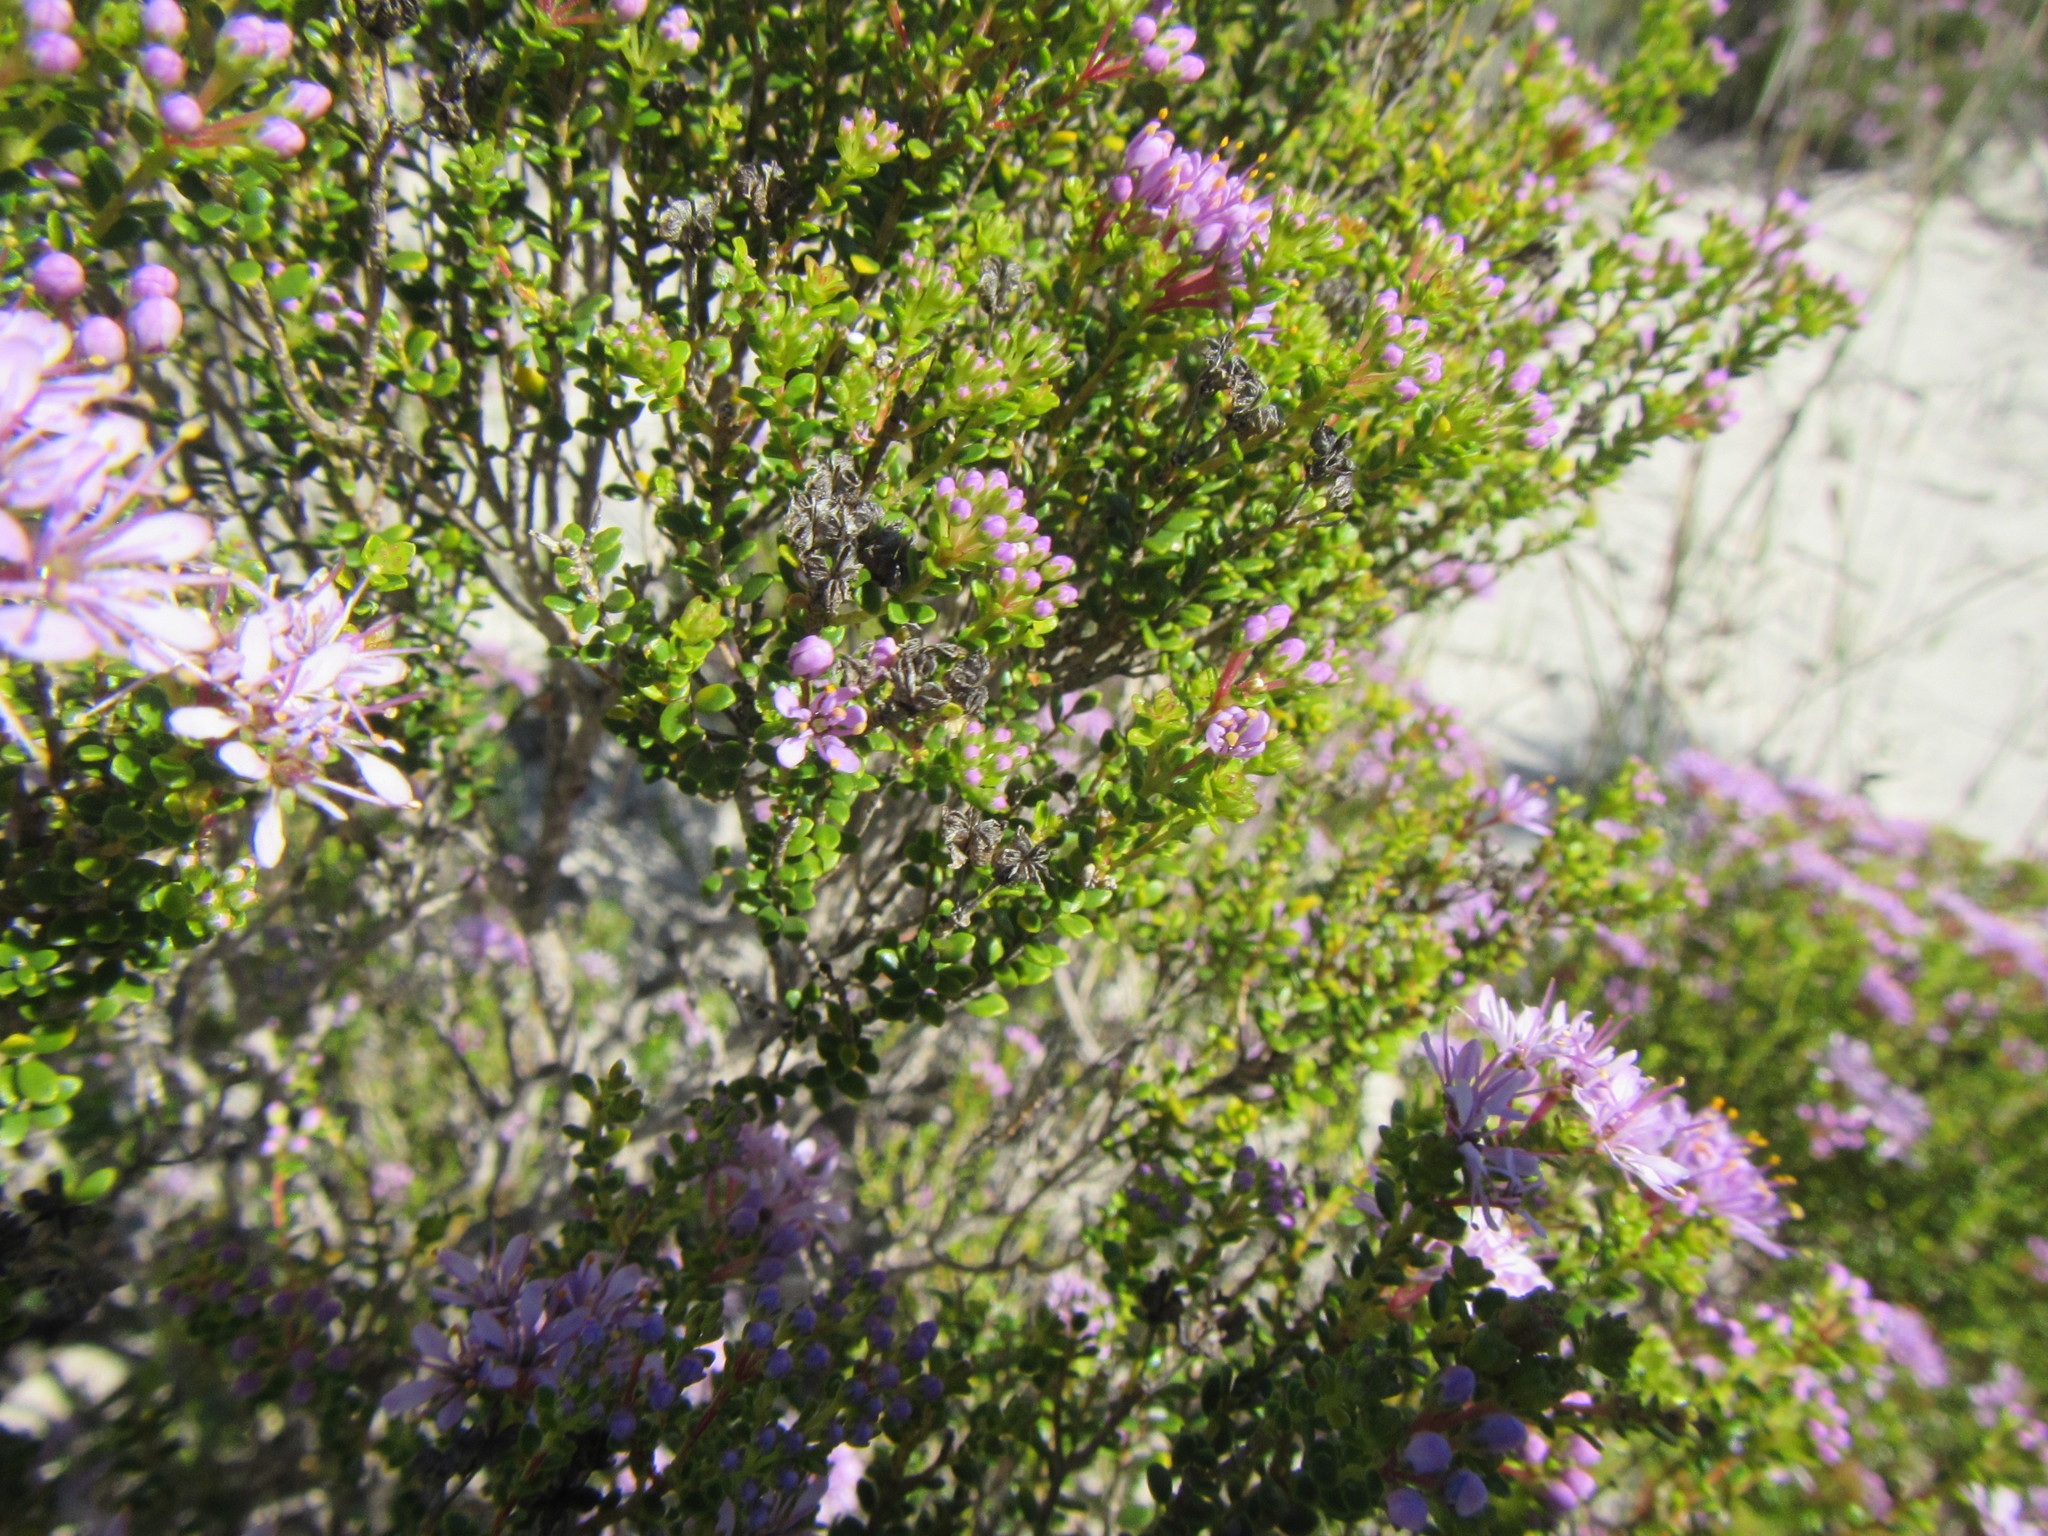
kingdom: Plantae
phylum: Tracheophyta
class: Magnoliopsida
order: Sapindales
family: Rutaceae
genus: Agathosma
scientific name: Agathosma thymifolia
